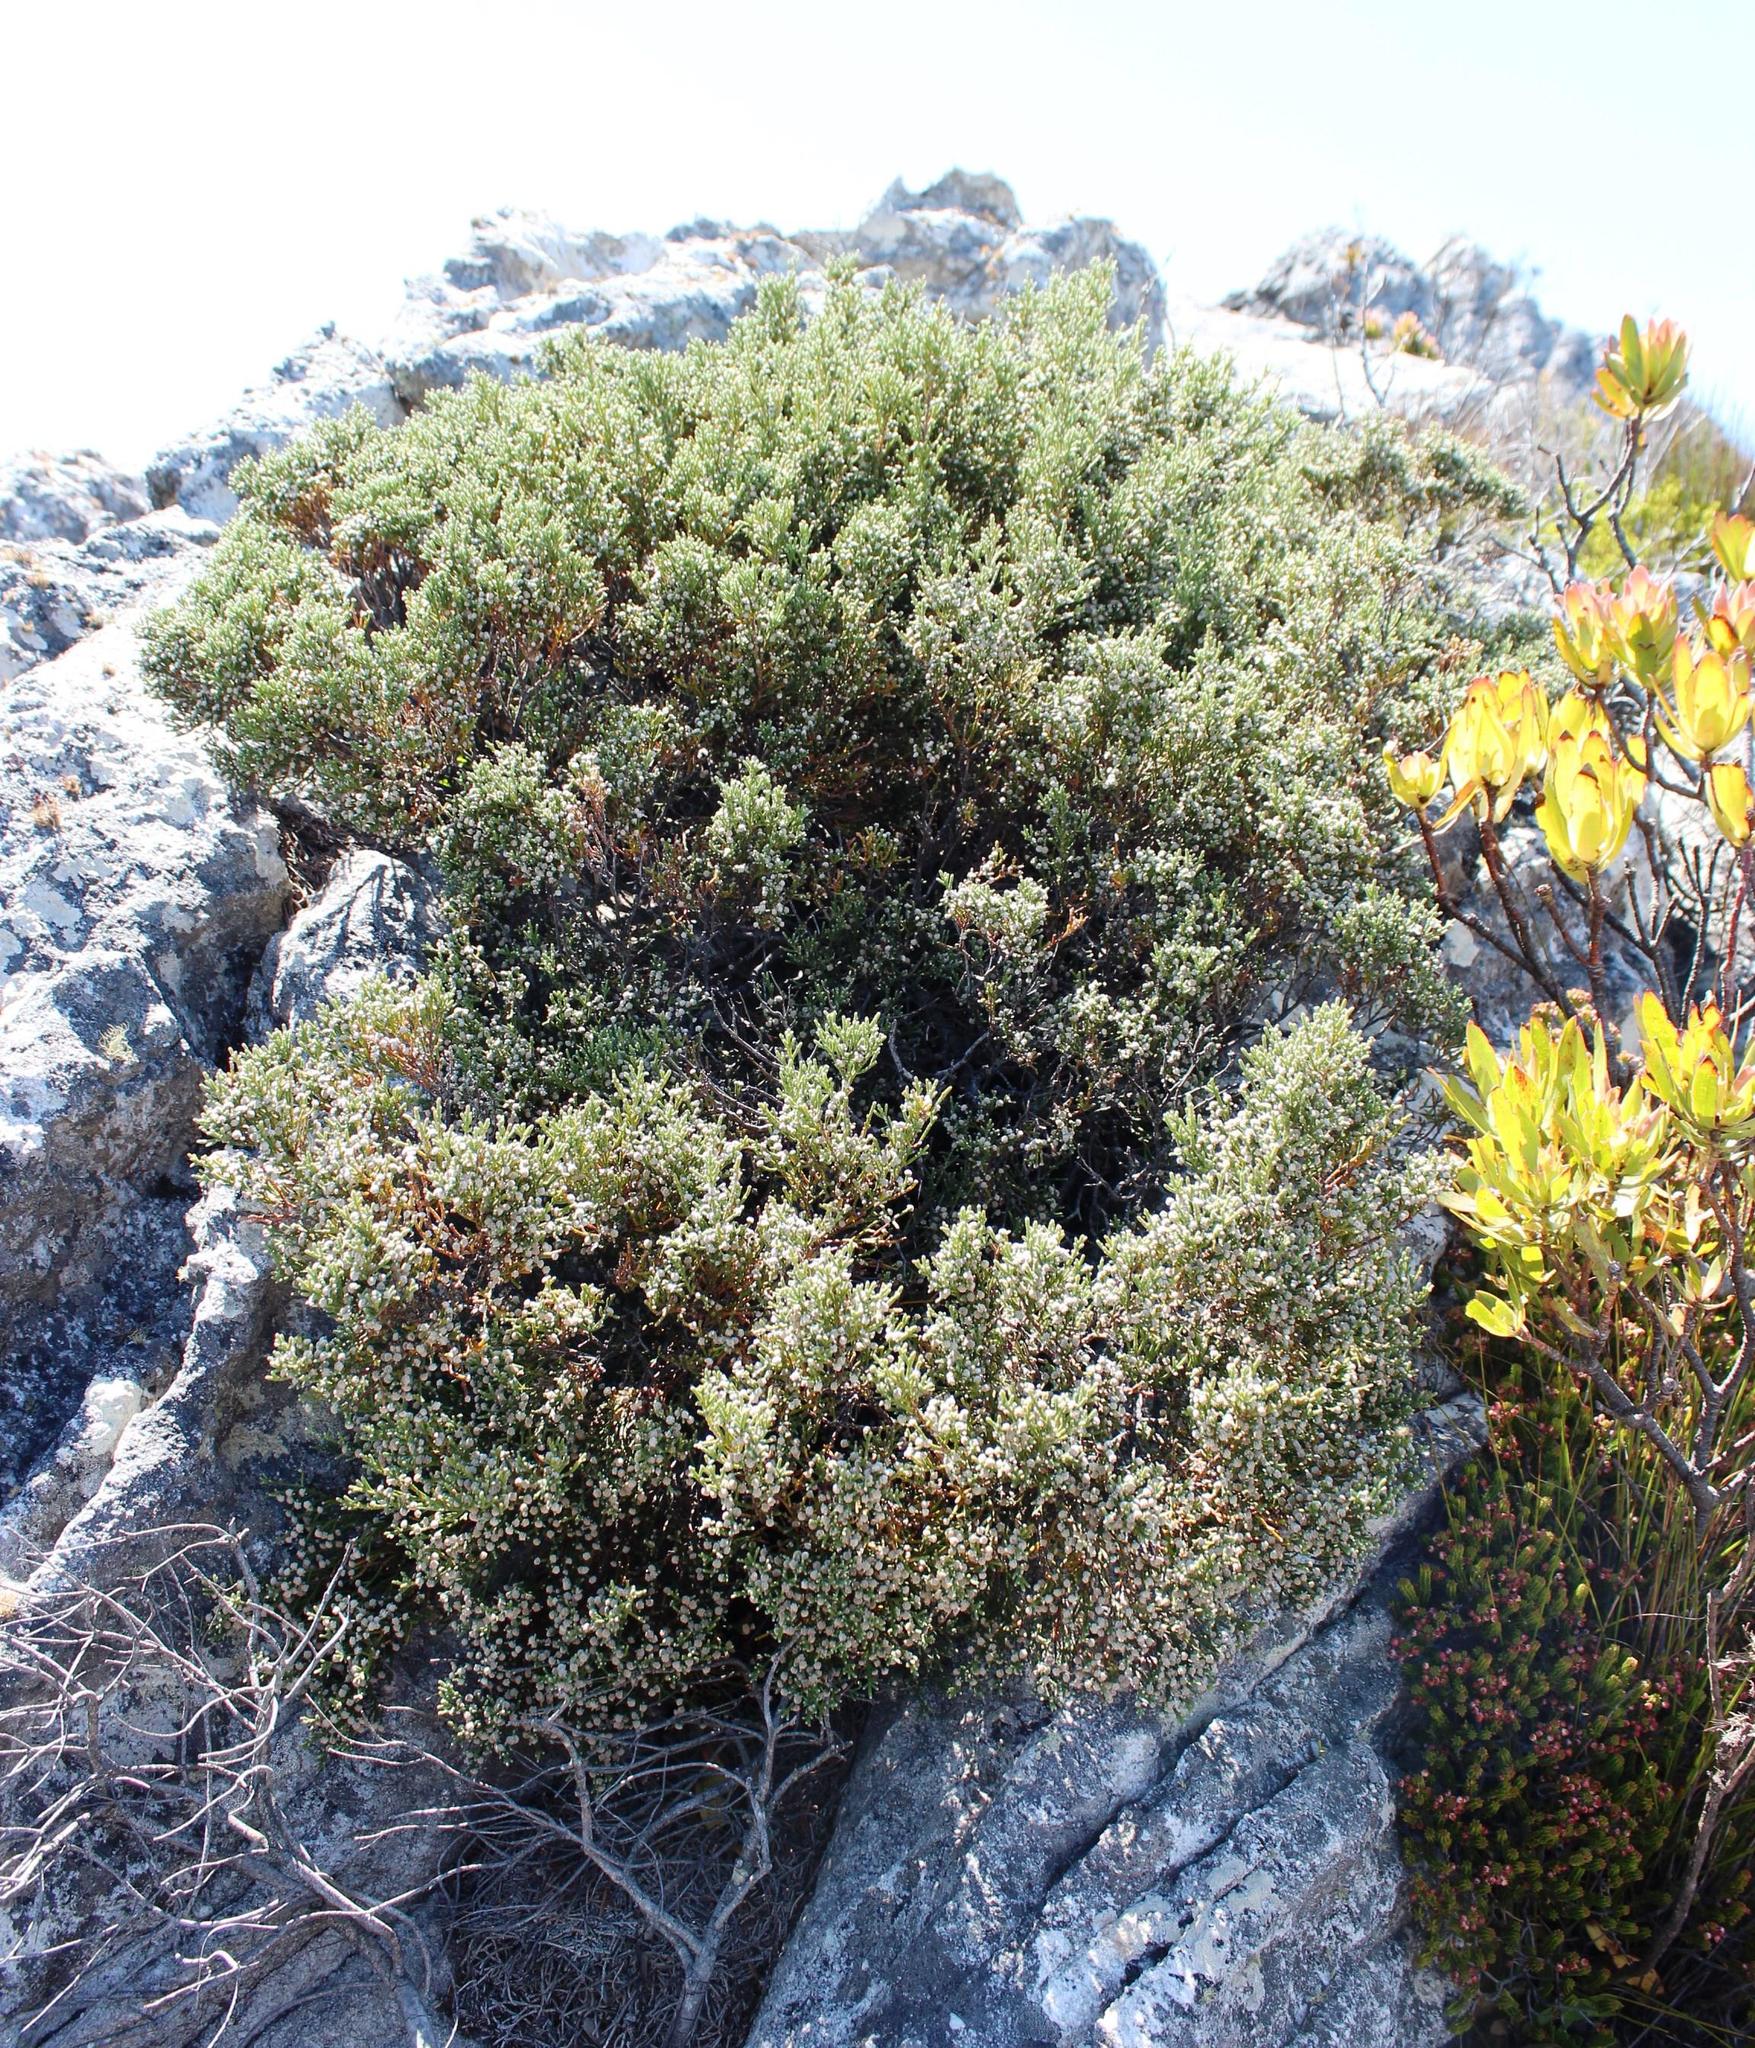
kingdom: Plantae
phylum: Tracheophyta
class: Magnoliopsida
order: Bruniales
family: Bruniaceae
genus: Brunia
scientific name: Brunia microphylla
